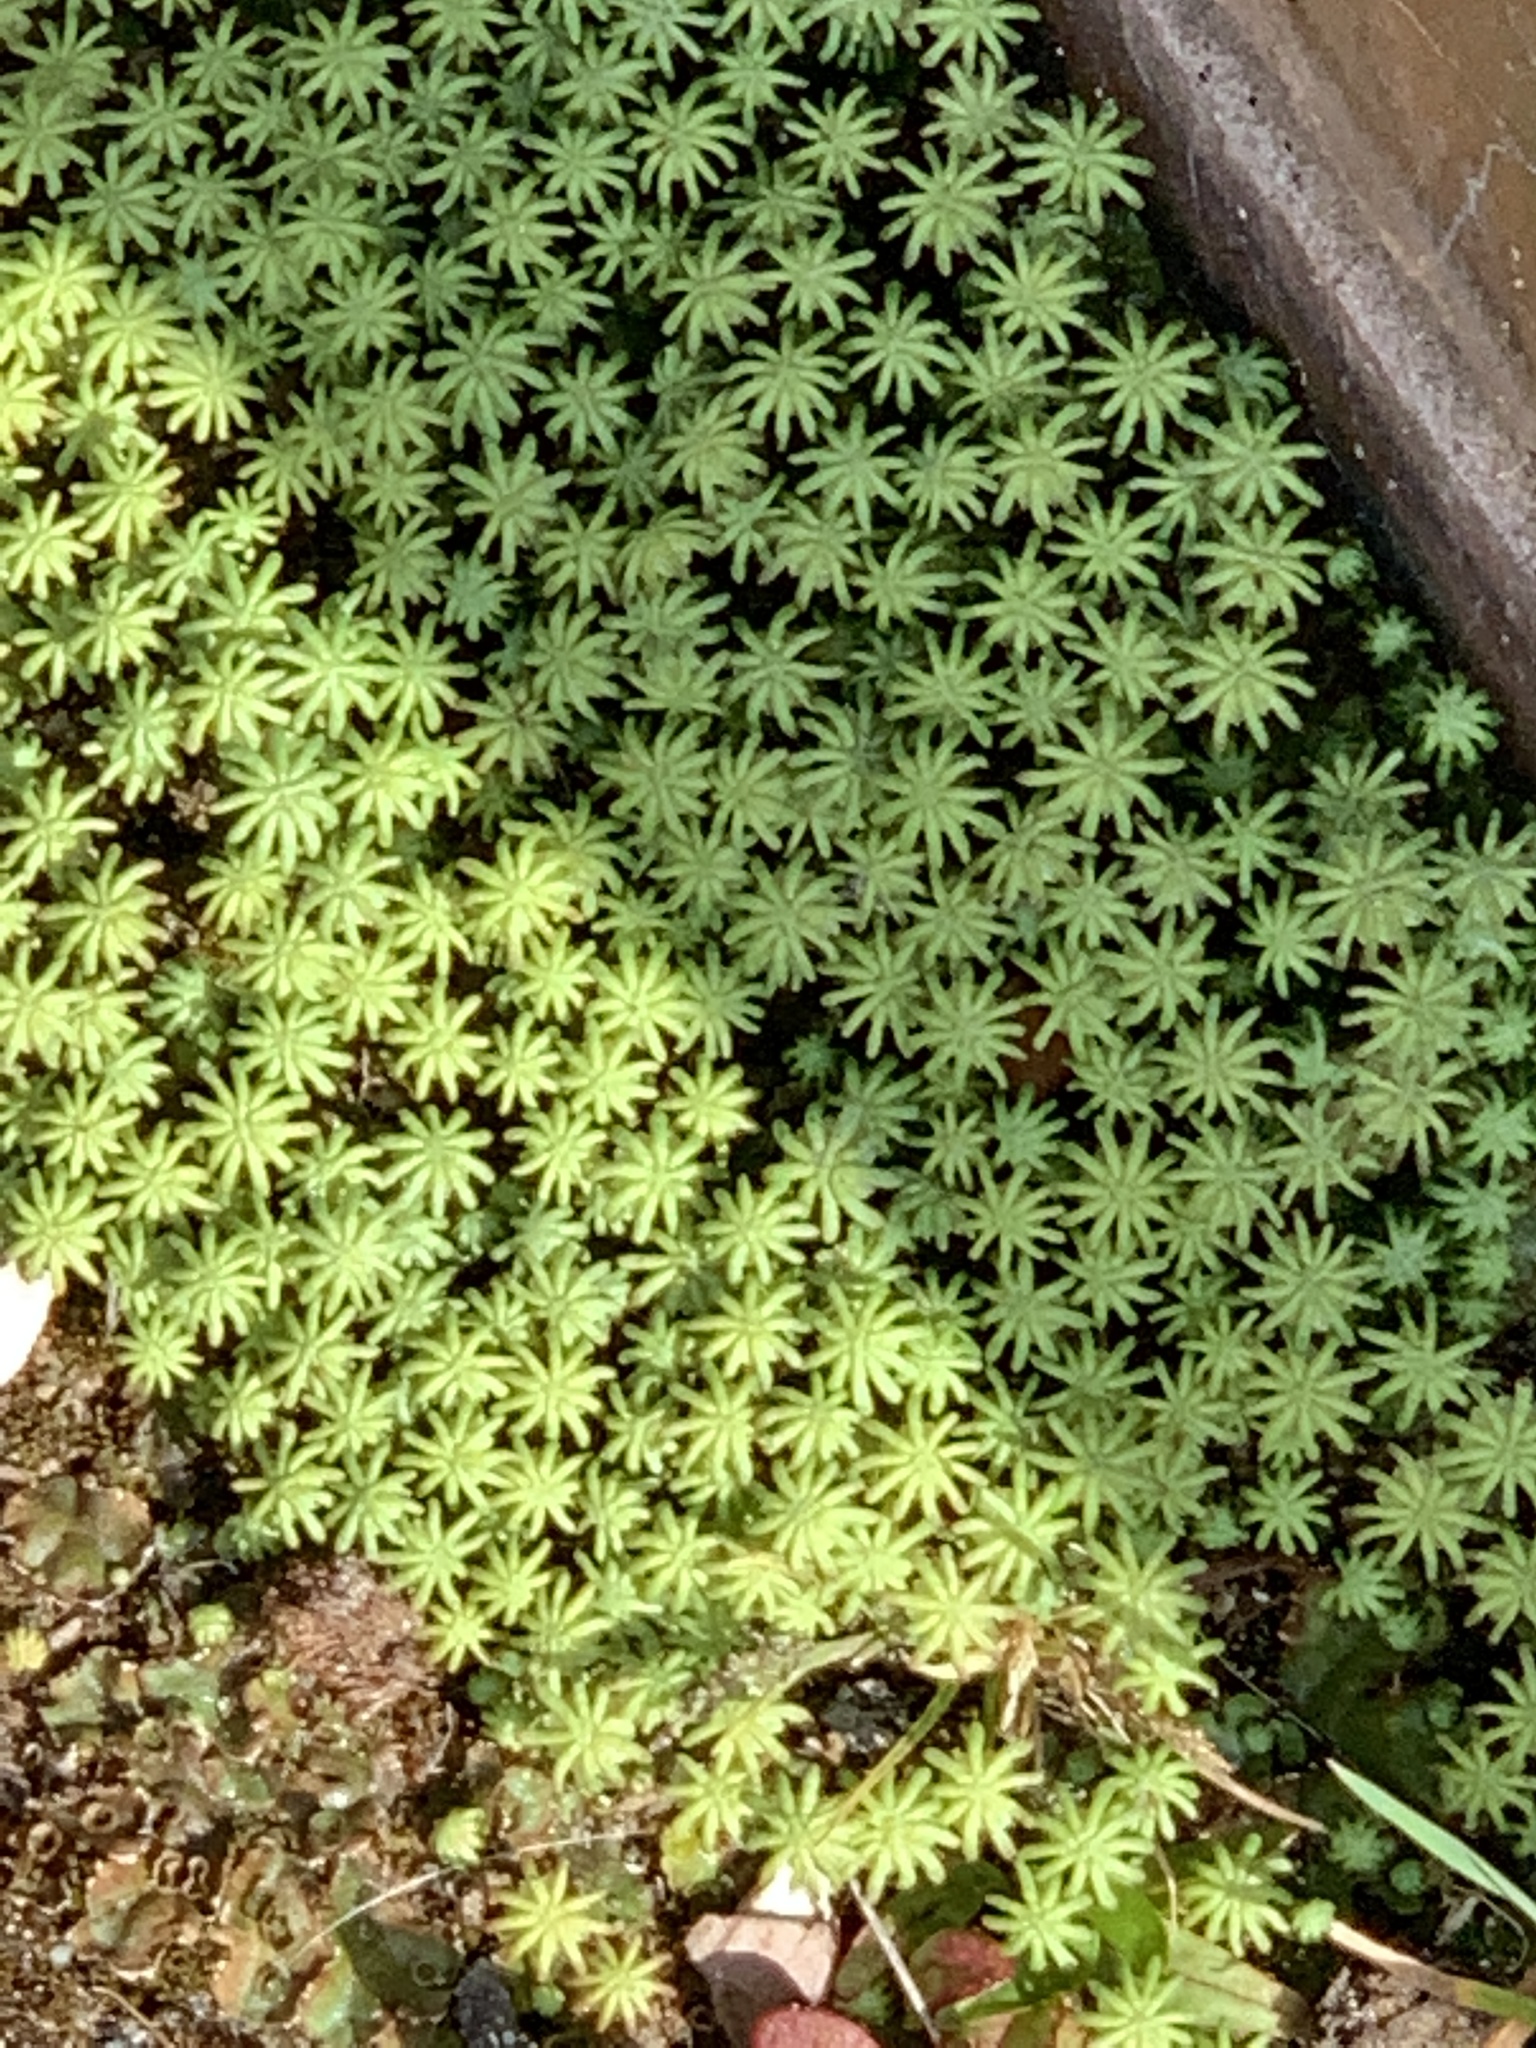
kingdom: Plantae
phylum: Marchantiophyta
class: Marchantiopsida
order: Marchantiales
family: Marchantiaceae
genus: Marchantia
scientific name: Marchantia polymorpha
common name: Common liverwort
